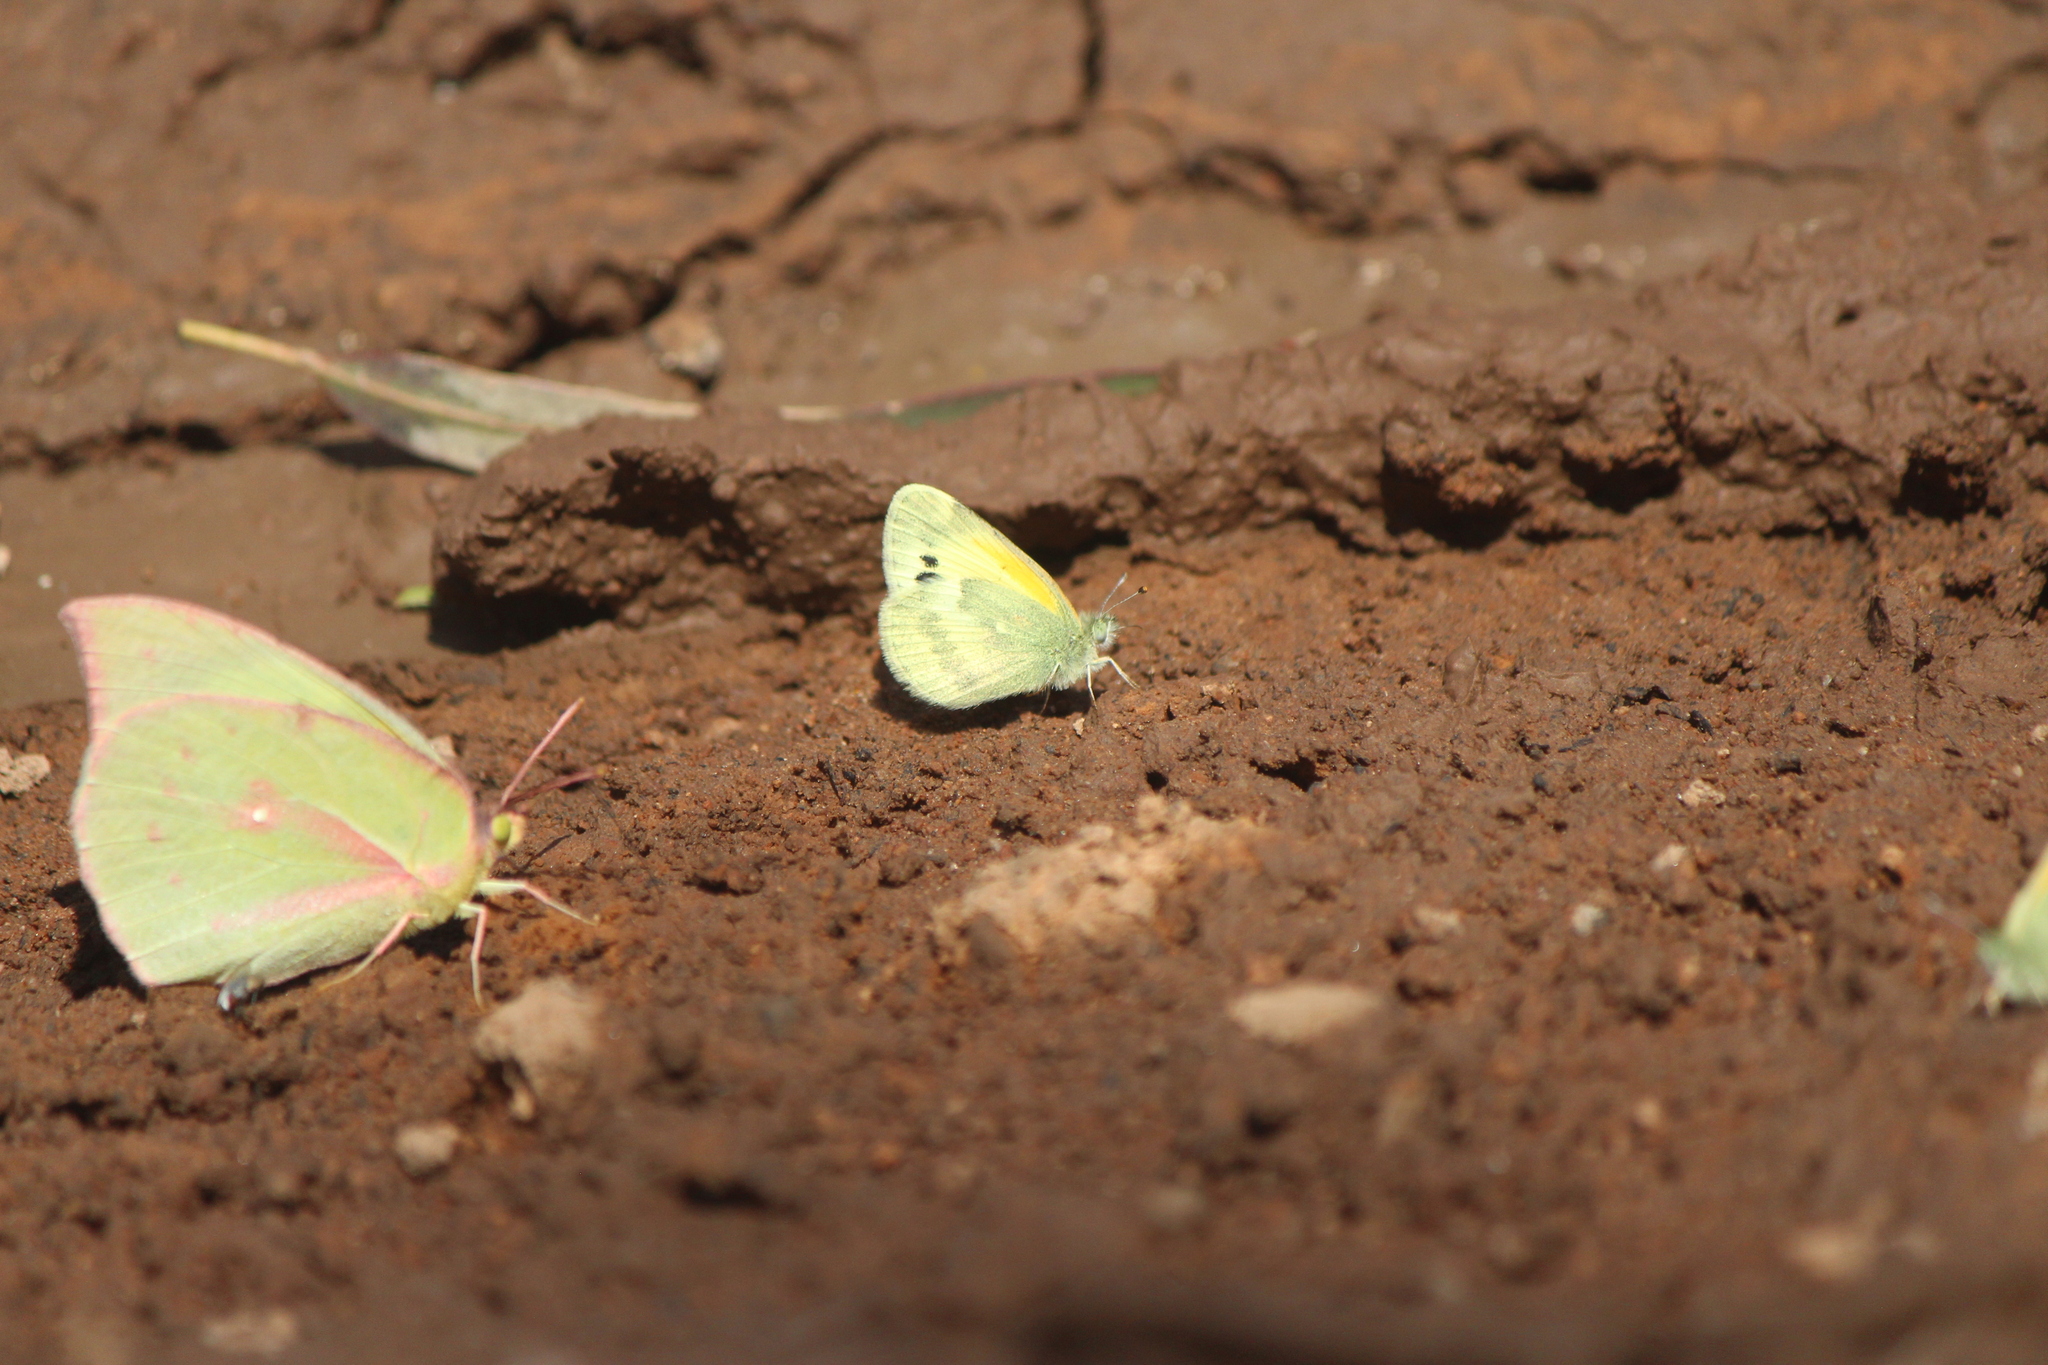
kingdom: Animalia
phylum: Arthropoda
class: Insecta
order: Lepidoptera
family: Pieridae
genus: Nathalis
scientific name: Nathalis iole
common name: Dainty sulphur
